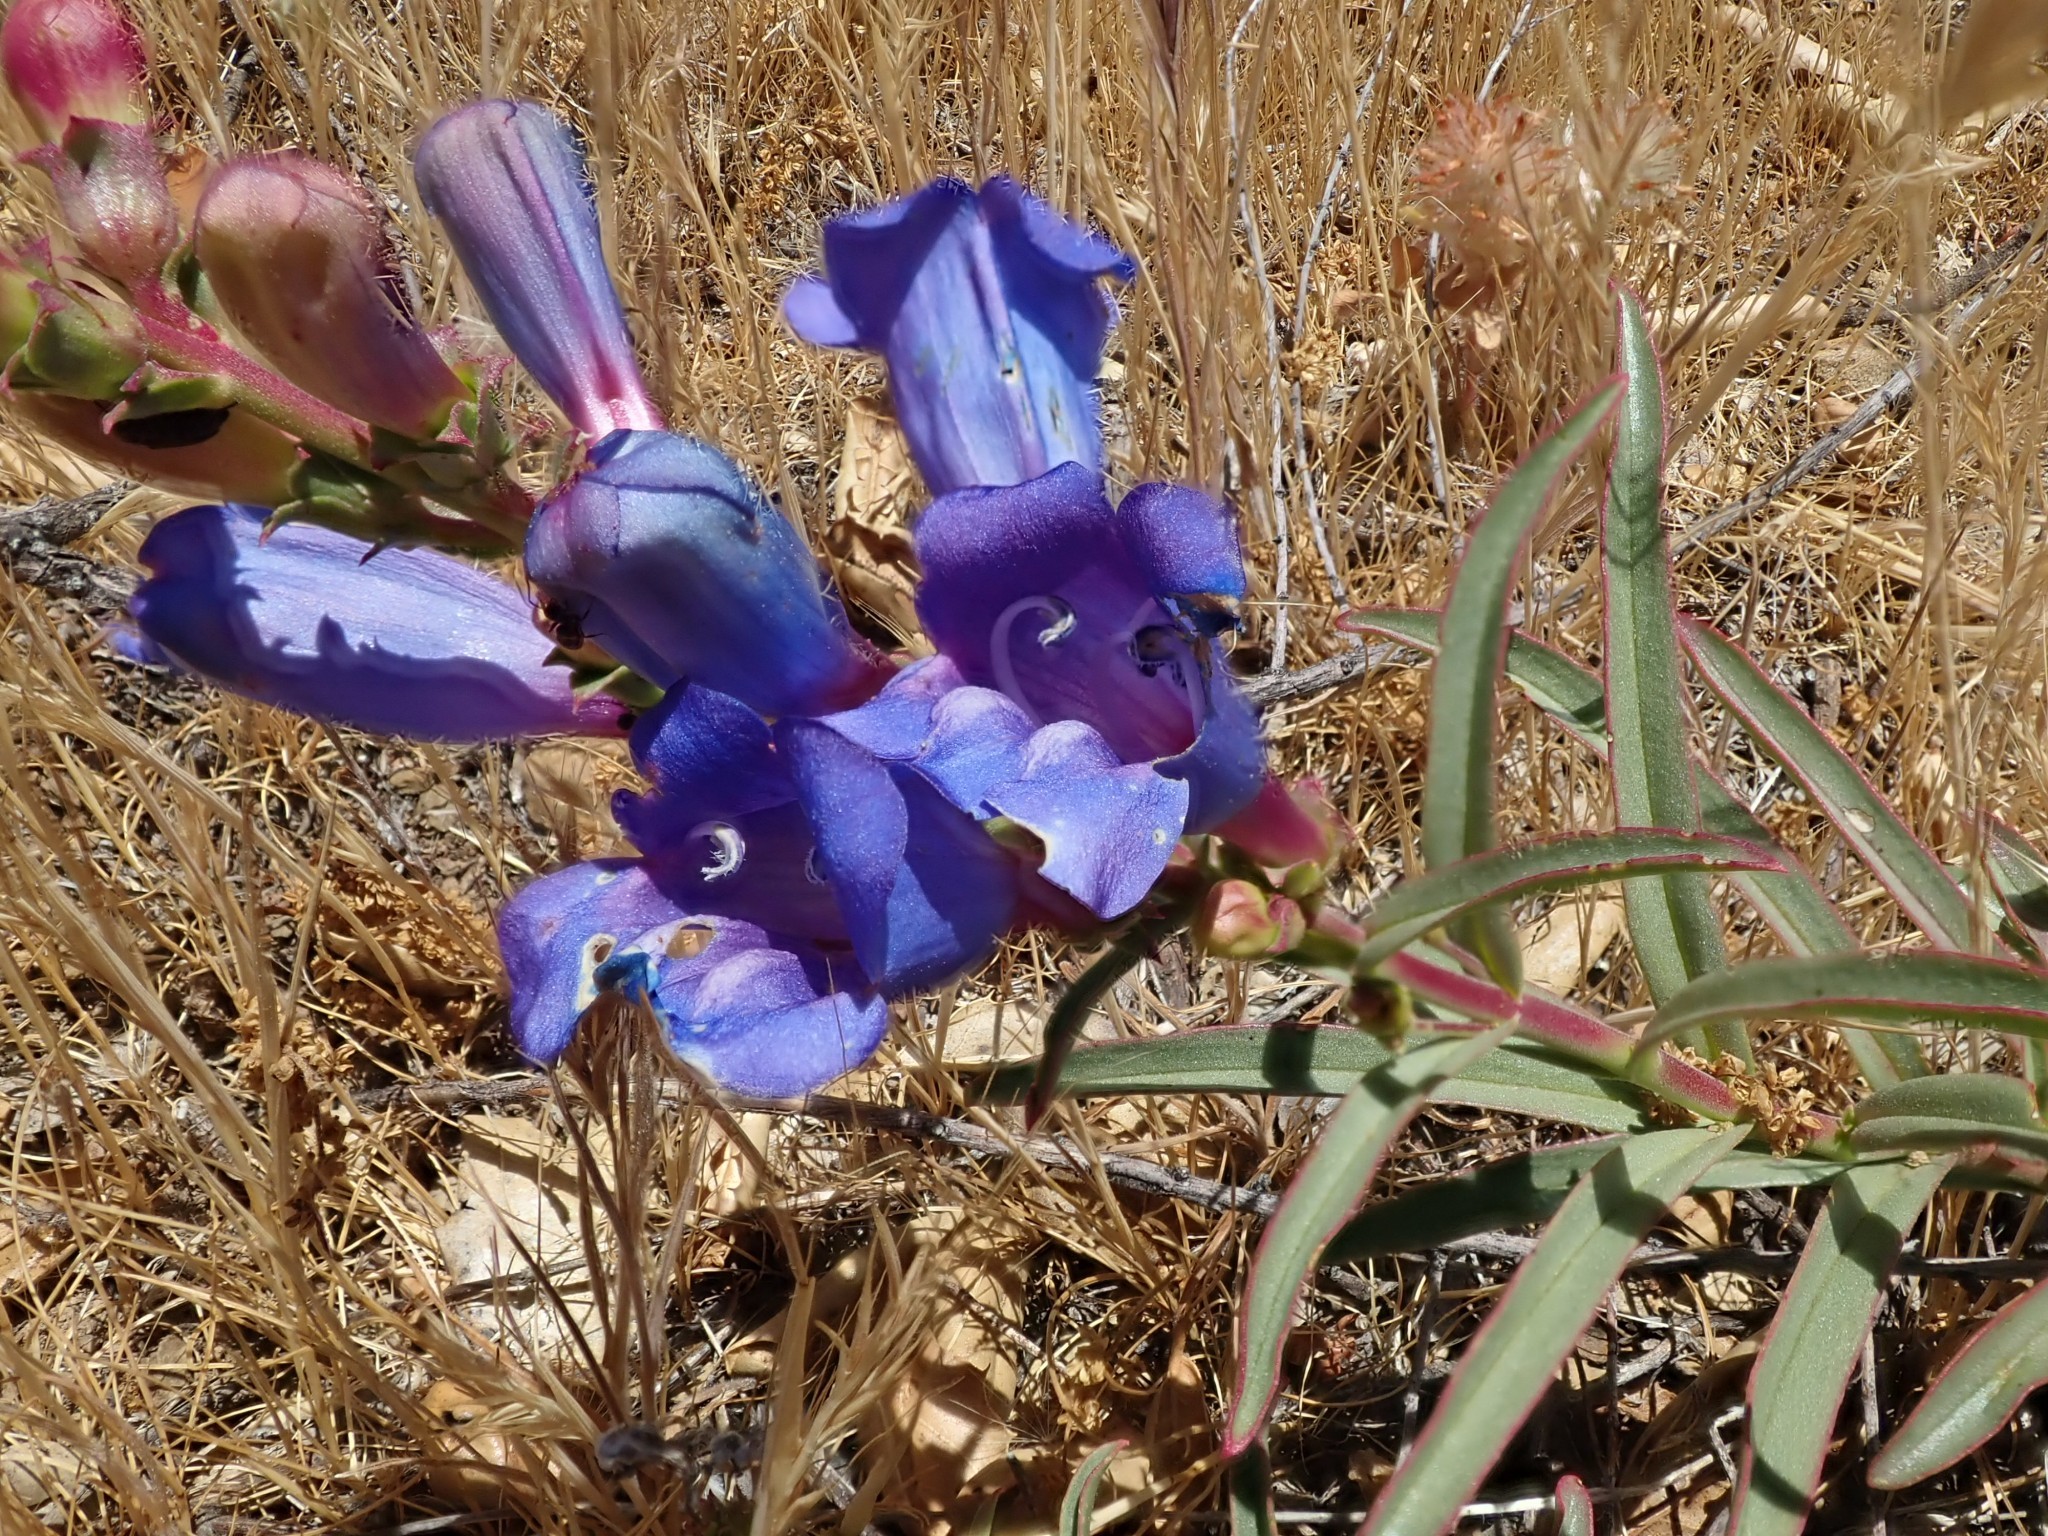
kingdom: Plantae
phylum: Tracheophyta
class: Magnoliopsida
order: Lamiales
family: Plantaginaceae
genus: Penstemon
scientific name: Penstemon heterophyllus
